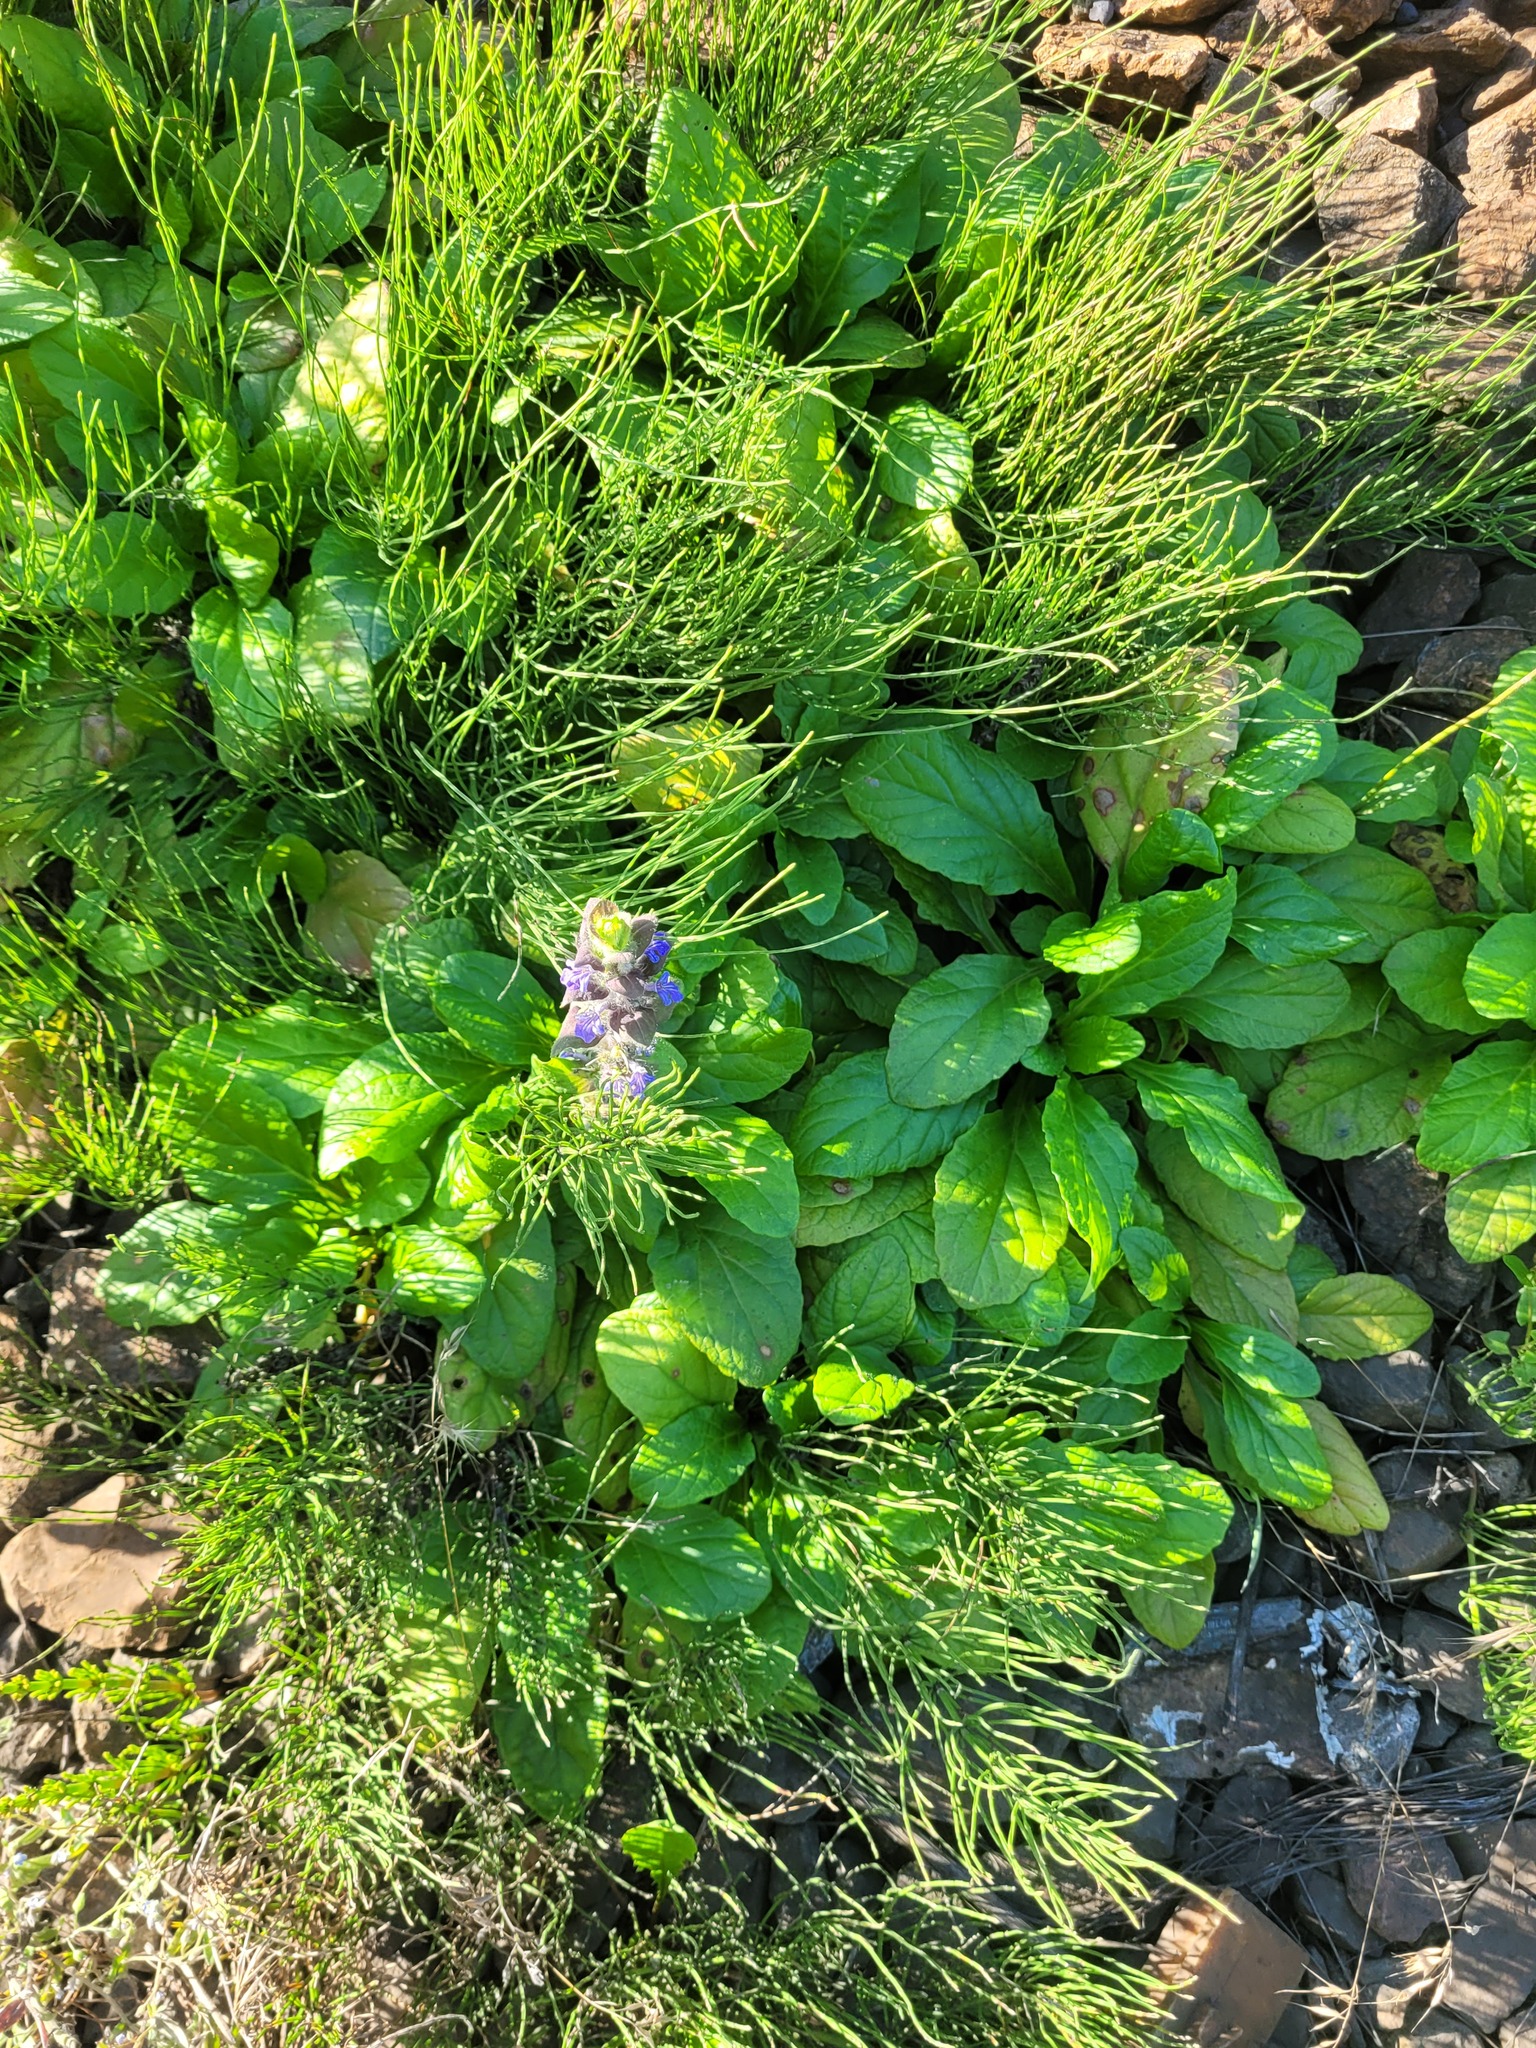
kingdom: Plantae
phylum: Tracheophyta
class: Magnoliopsida
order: Lamiales
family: Lamiaceae
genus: Ajuga
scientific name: Ajuga reptans
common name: Bugle
